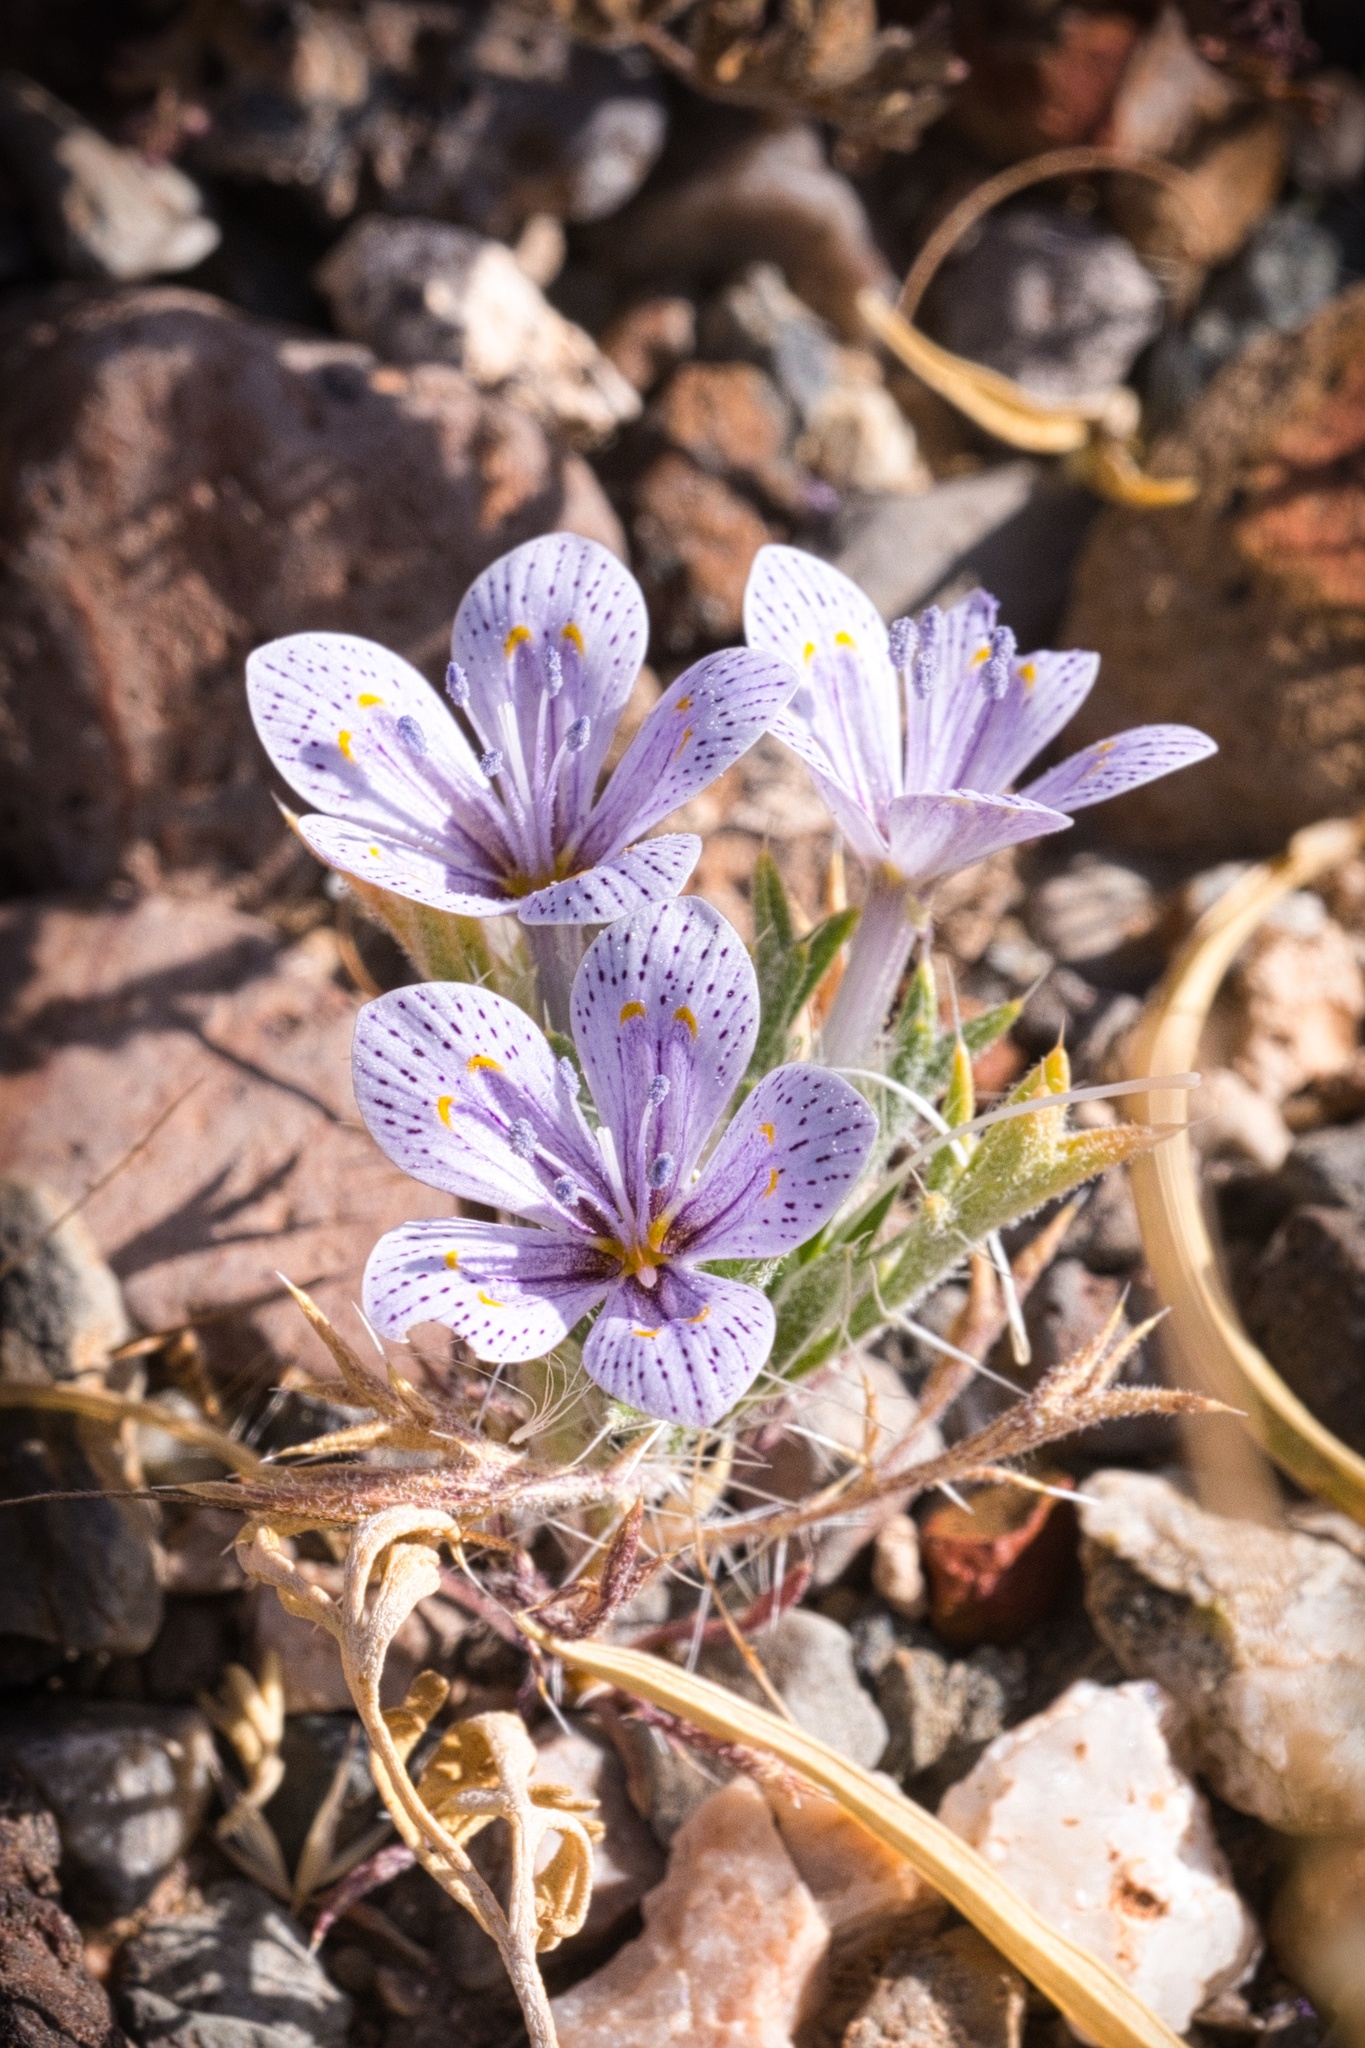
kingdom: Plantae
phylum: Tracheophyta
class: Magnoliopsida
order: Ericales
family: Polemoniaceae
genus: Langloisia
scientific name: Langloisia setosissima
